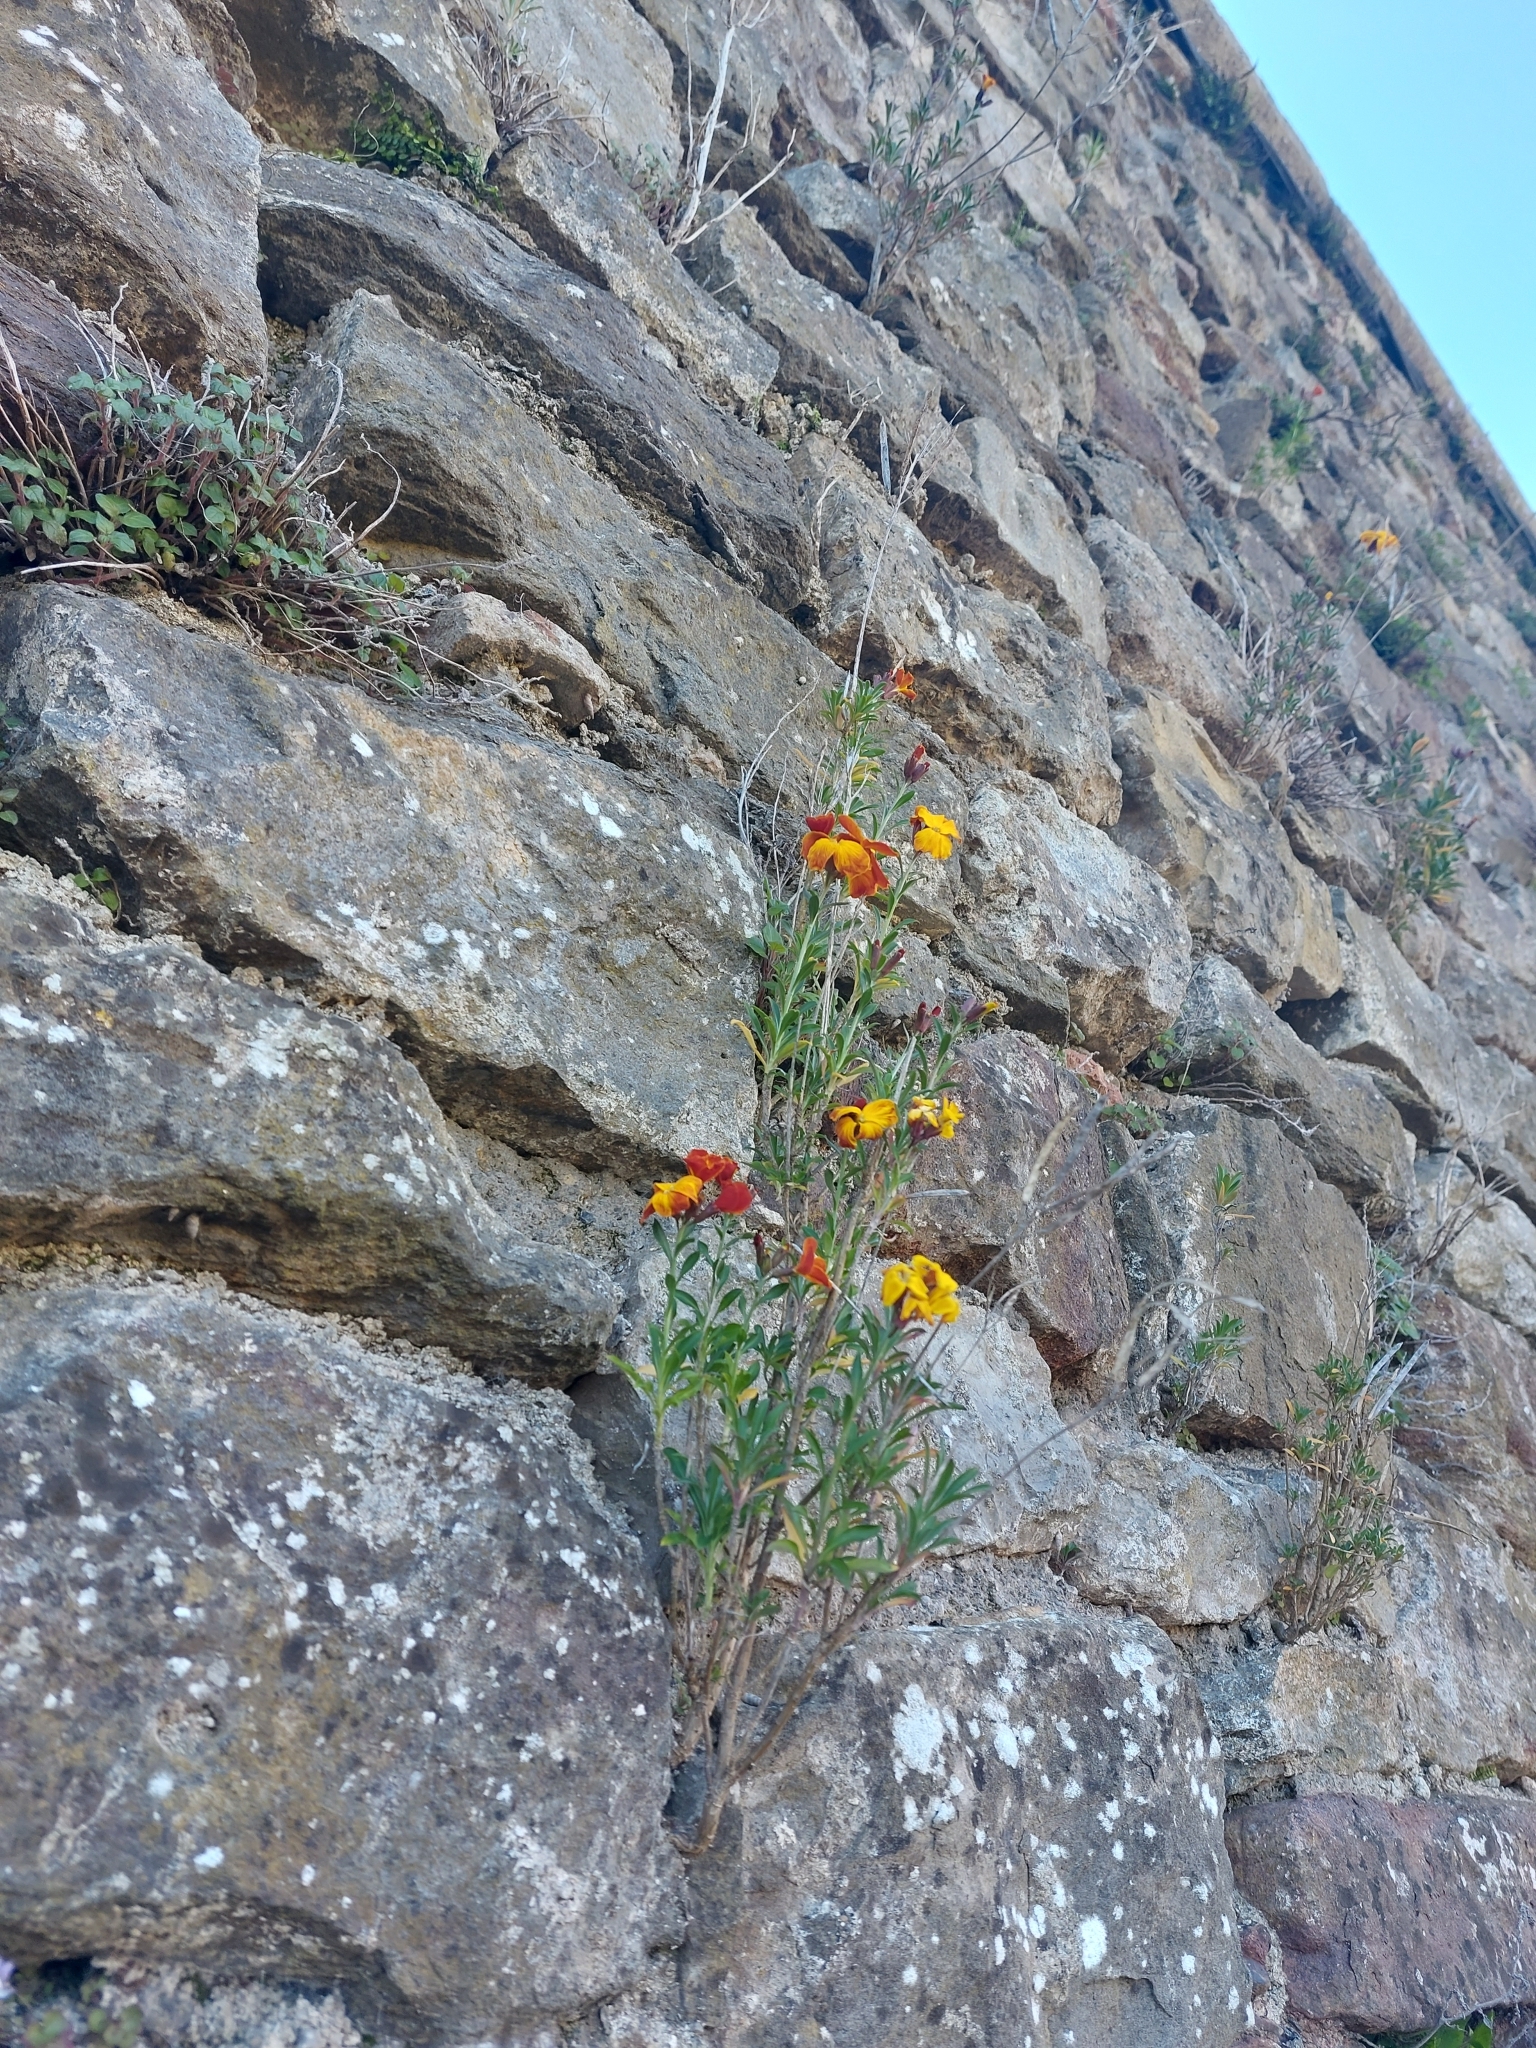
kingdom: Plantae
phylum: Tracheophyta
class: Magnoliopsida
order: Brassicales
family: Brassicaceae
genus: Erysimum
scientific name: Erysimum cheiri
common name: Wallflower
